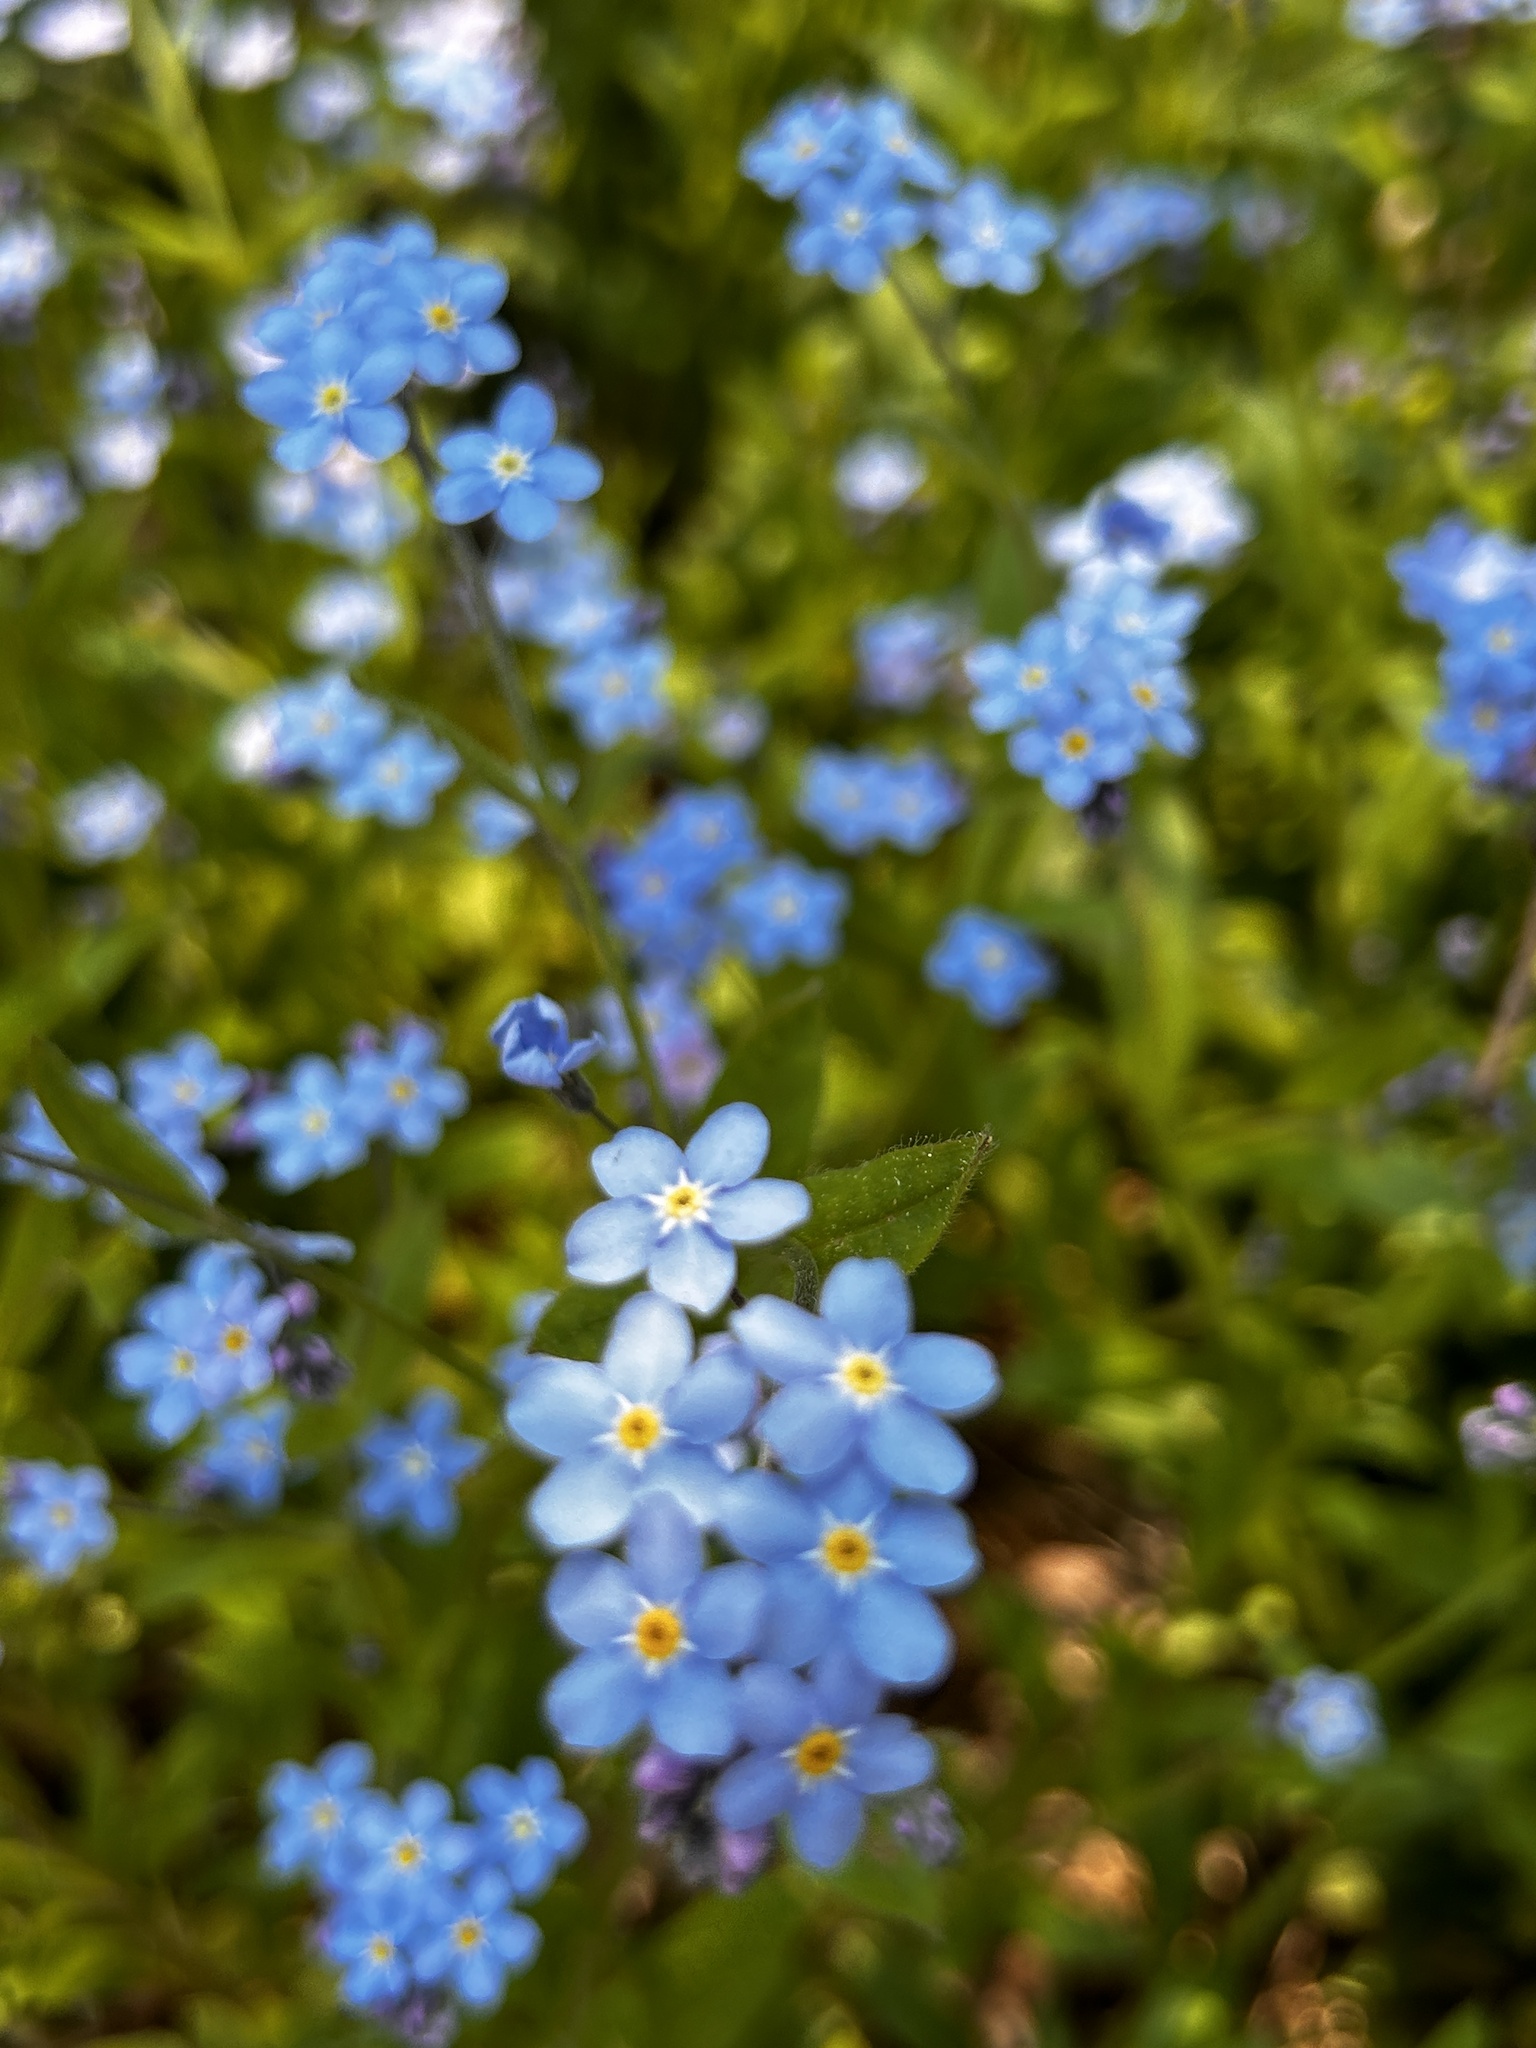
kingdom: Plantae
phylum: Tracheophyta
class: Magnoliopsida
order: Boraginales
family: Boraginaceae
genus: Myosotis
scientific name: Myosotis sylvatica
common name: Wood forget-me-not
